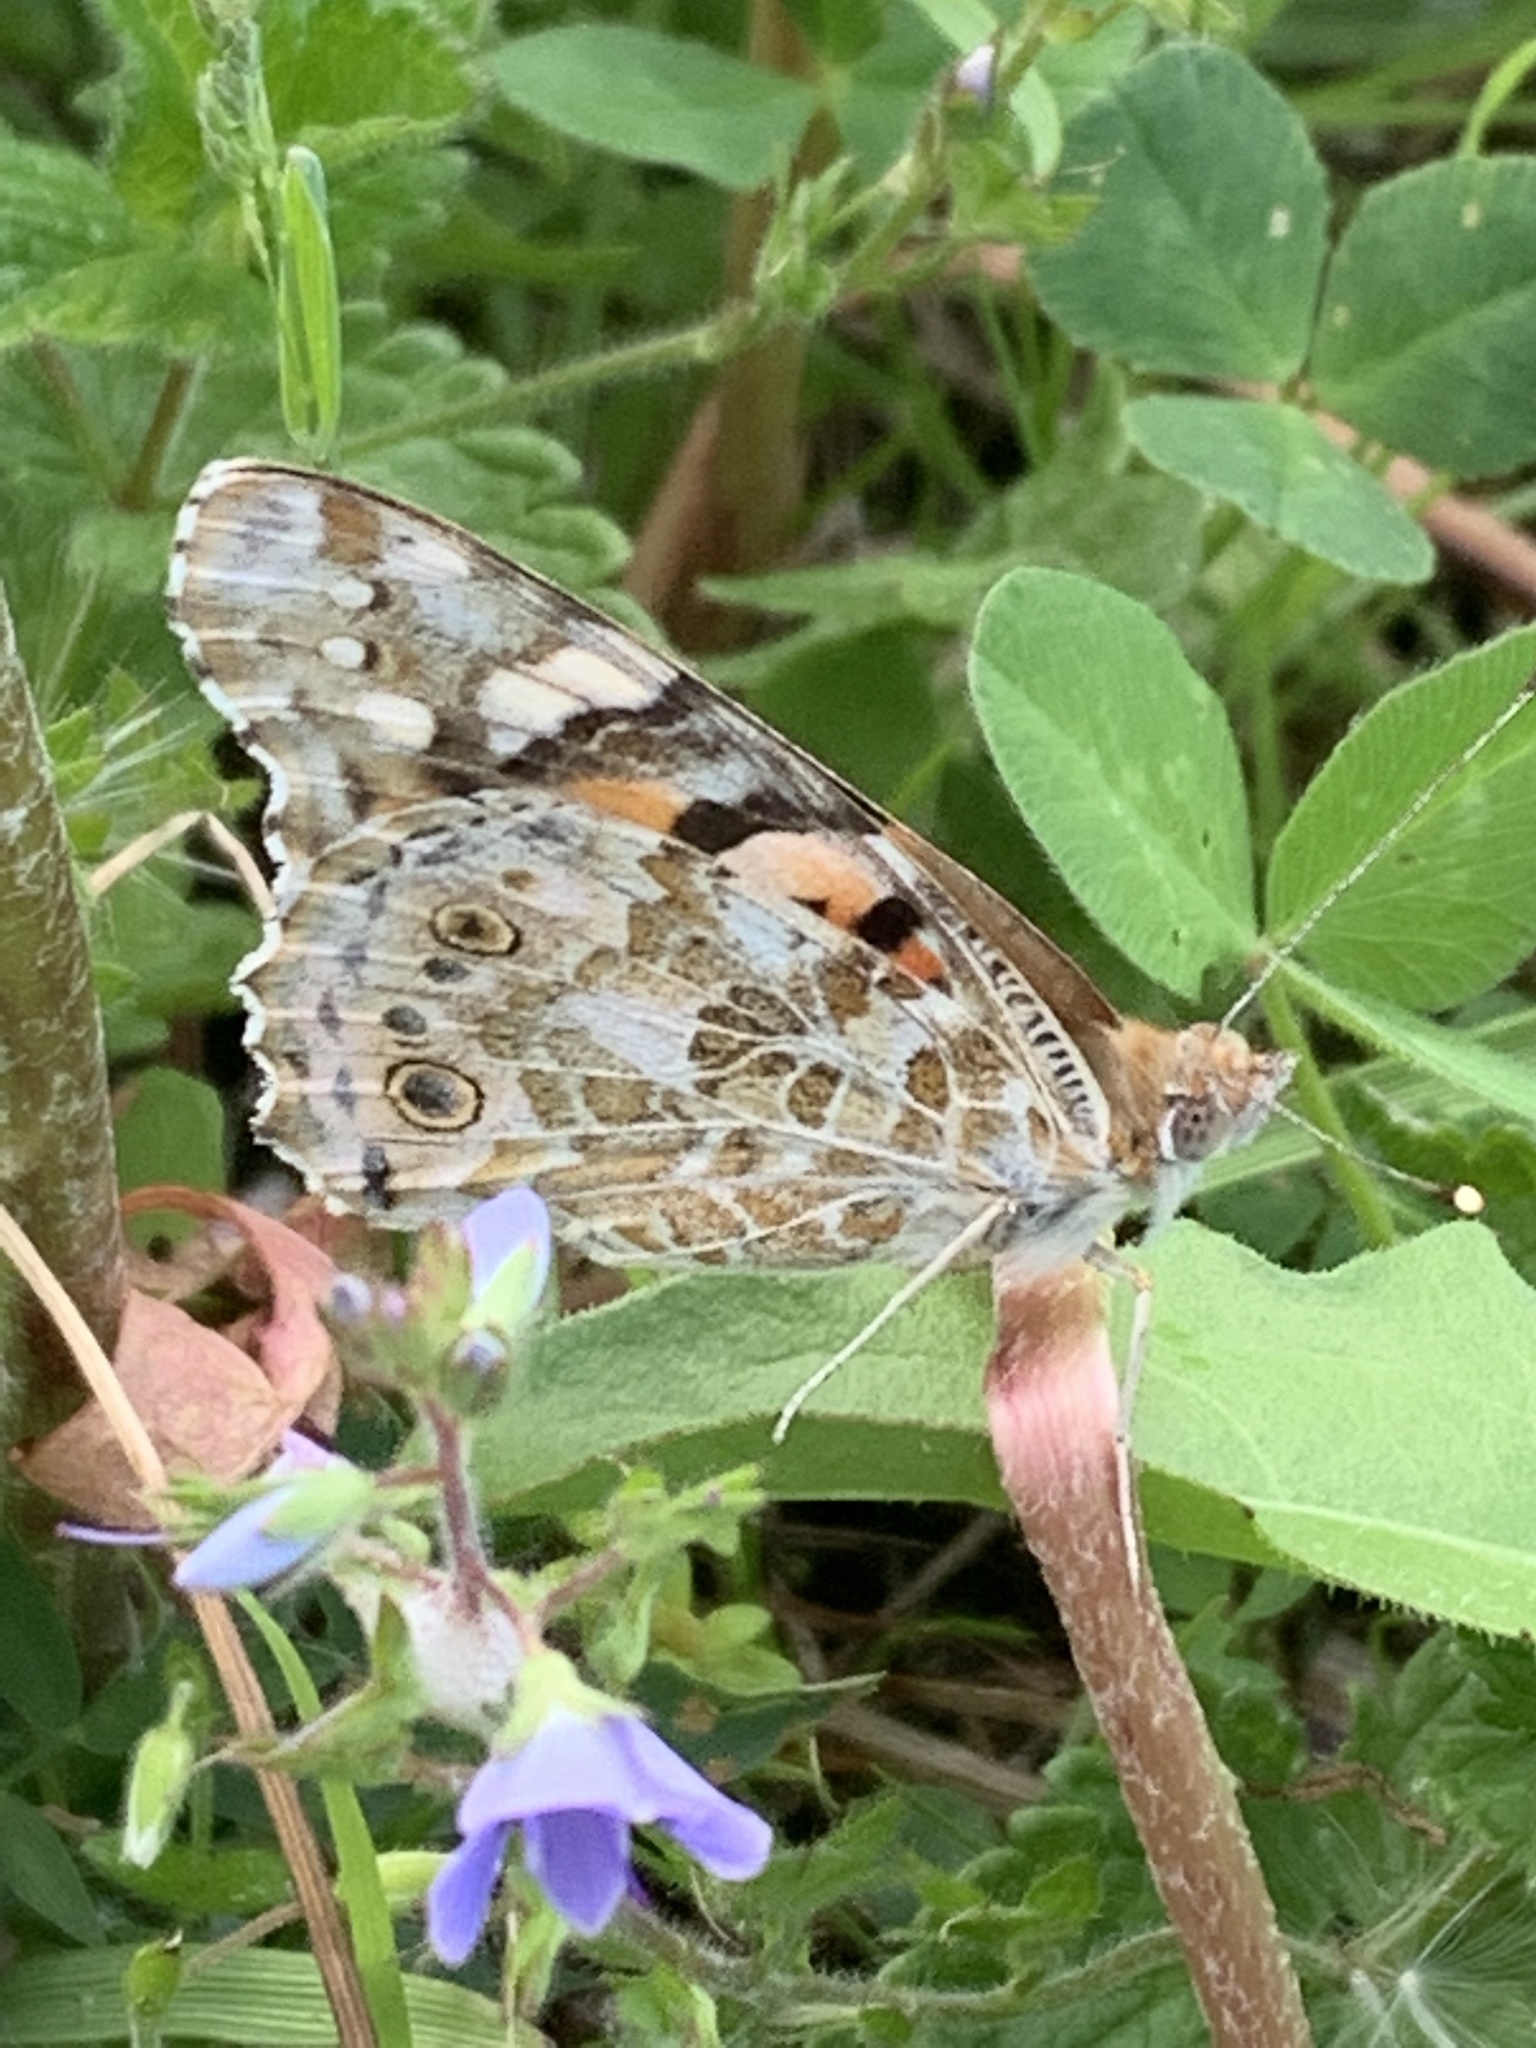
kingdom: Animalia
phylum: Arthropoda
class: Insecta
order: Lepidoptera
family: Nymphalidae
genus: Vanessa
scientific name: Vanessa cardui
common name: Painted lady
